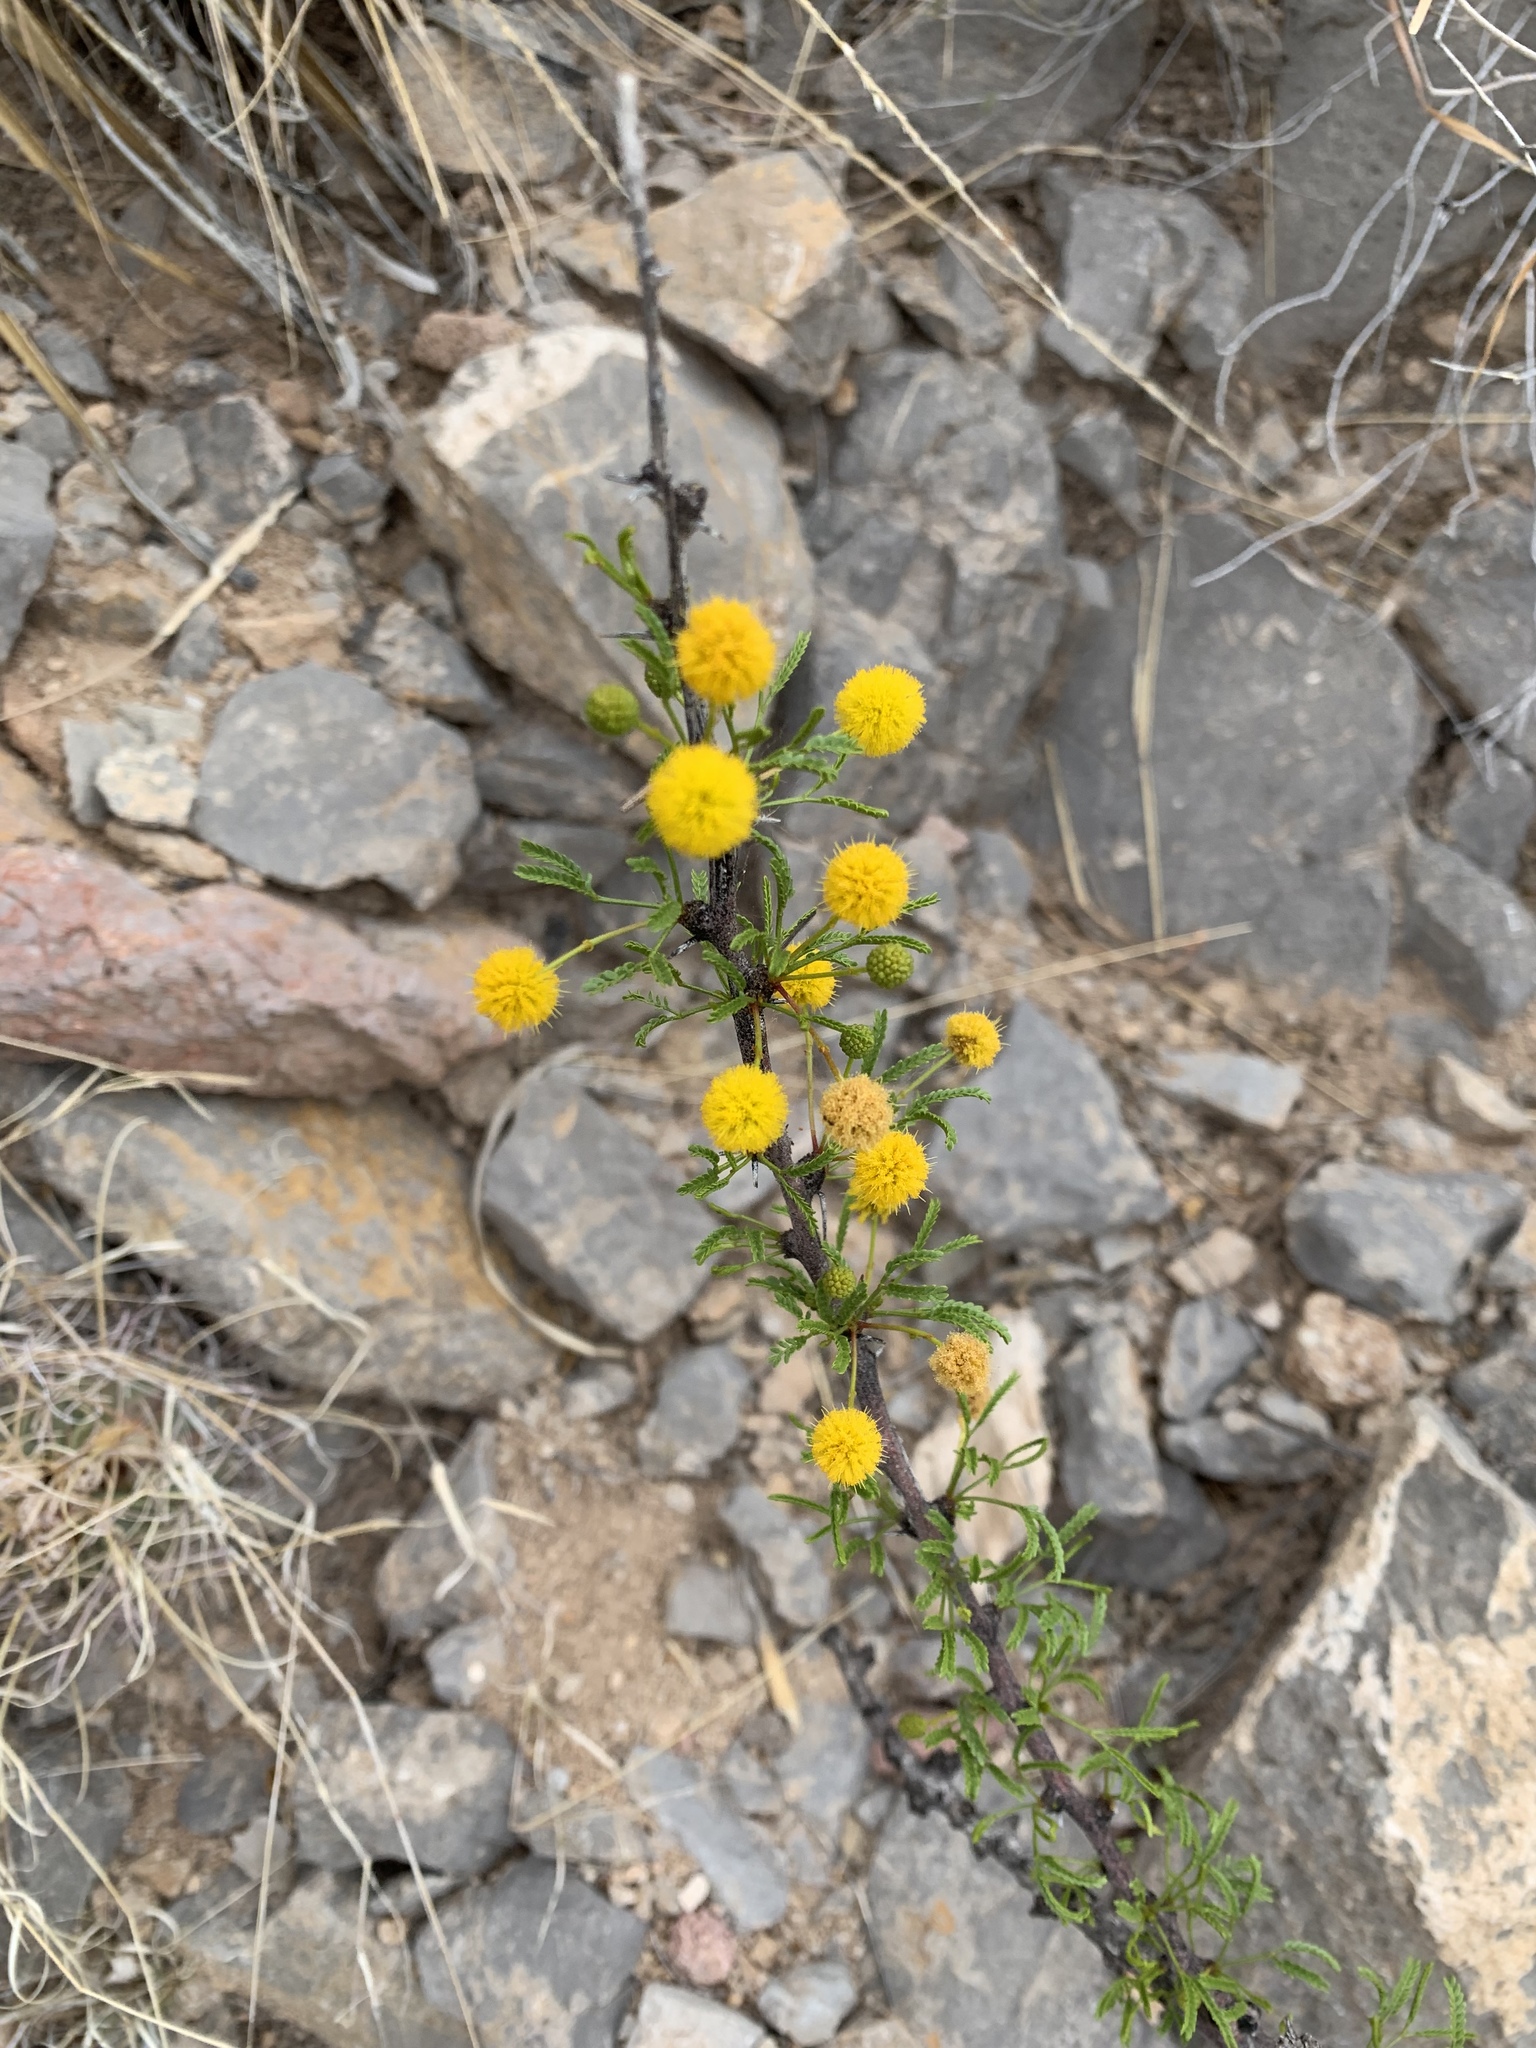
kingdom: Plantae
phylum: Tracheophyta
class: Magnoliopsida
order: Fabales
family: Fabaceae
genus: Vachellia
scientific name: Vachellia vernicosa
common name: Viscid acacia
